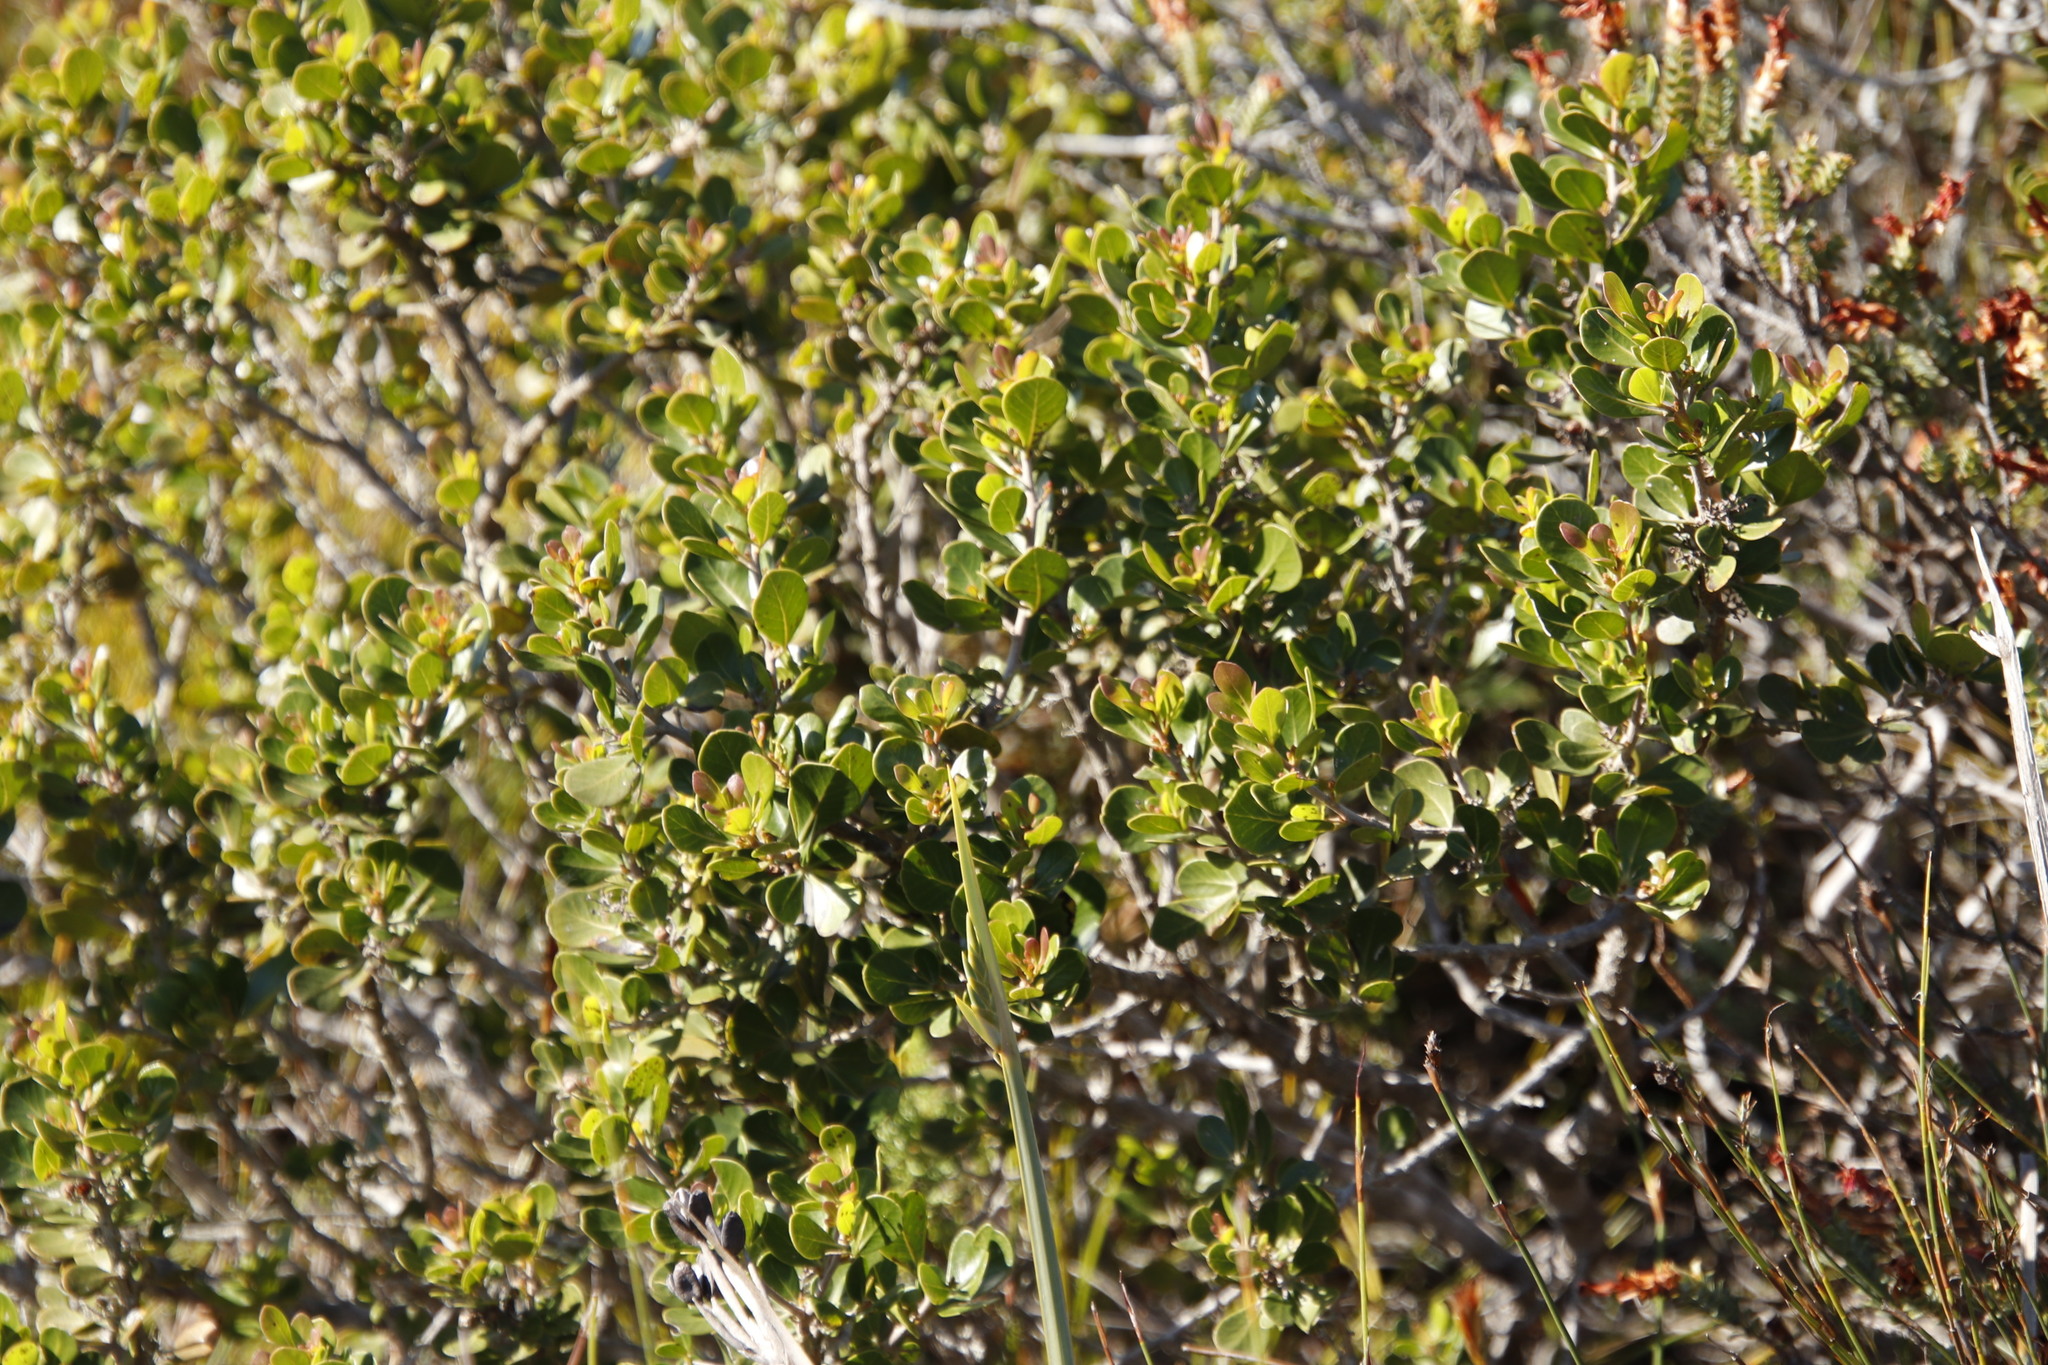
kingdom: Plantae
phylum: Tracheophyta
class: Magnoliopsida
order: Sapindales
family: Anacardiaceae
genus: Searsia
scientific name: Searsia lucida
